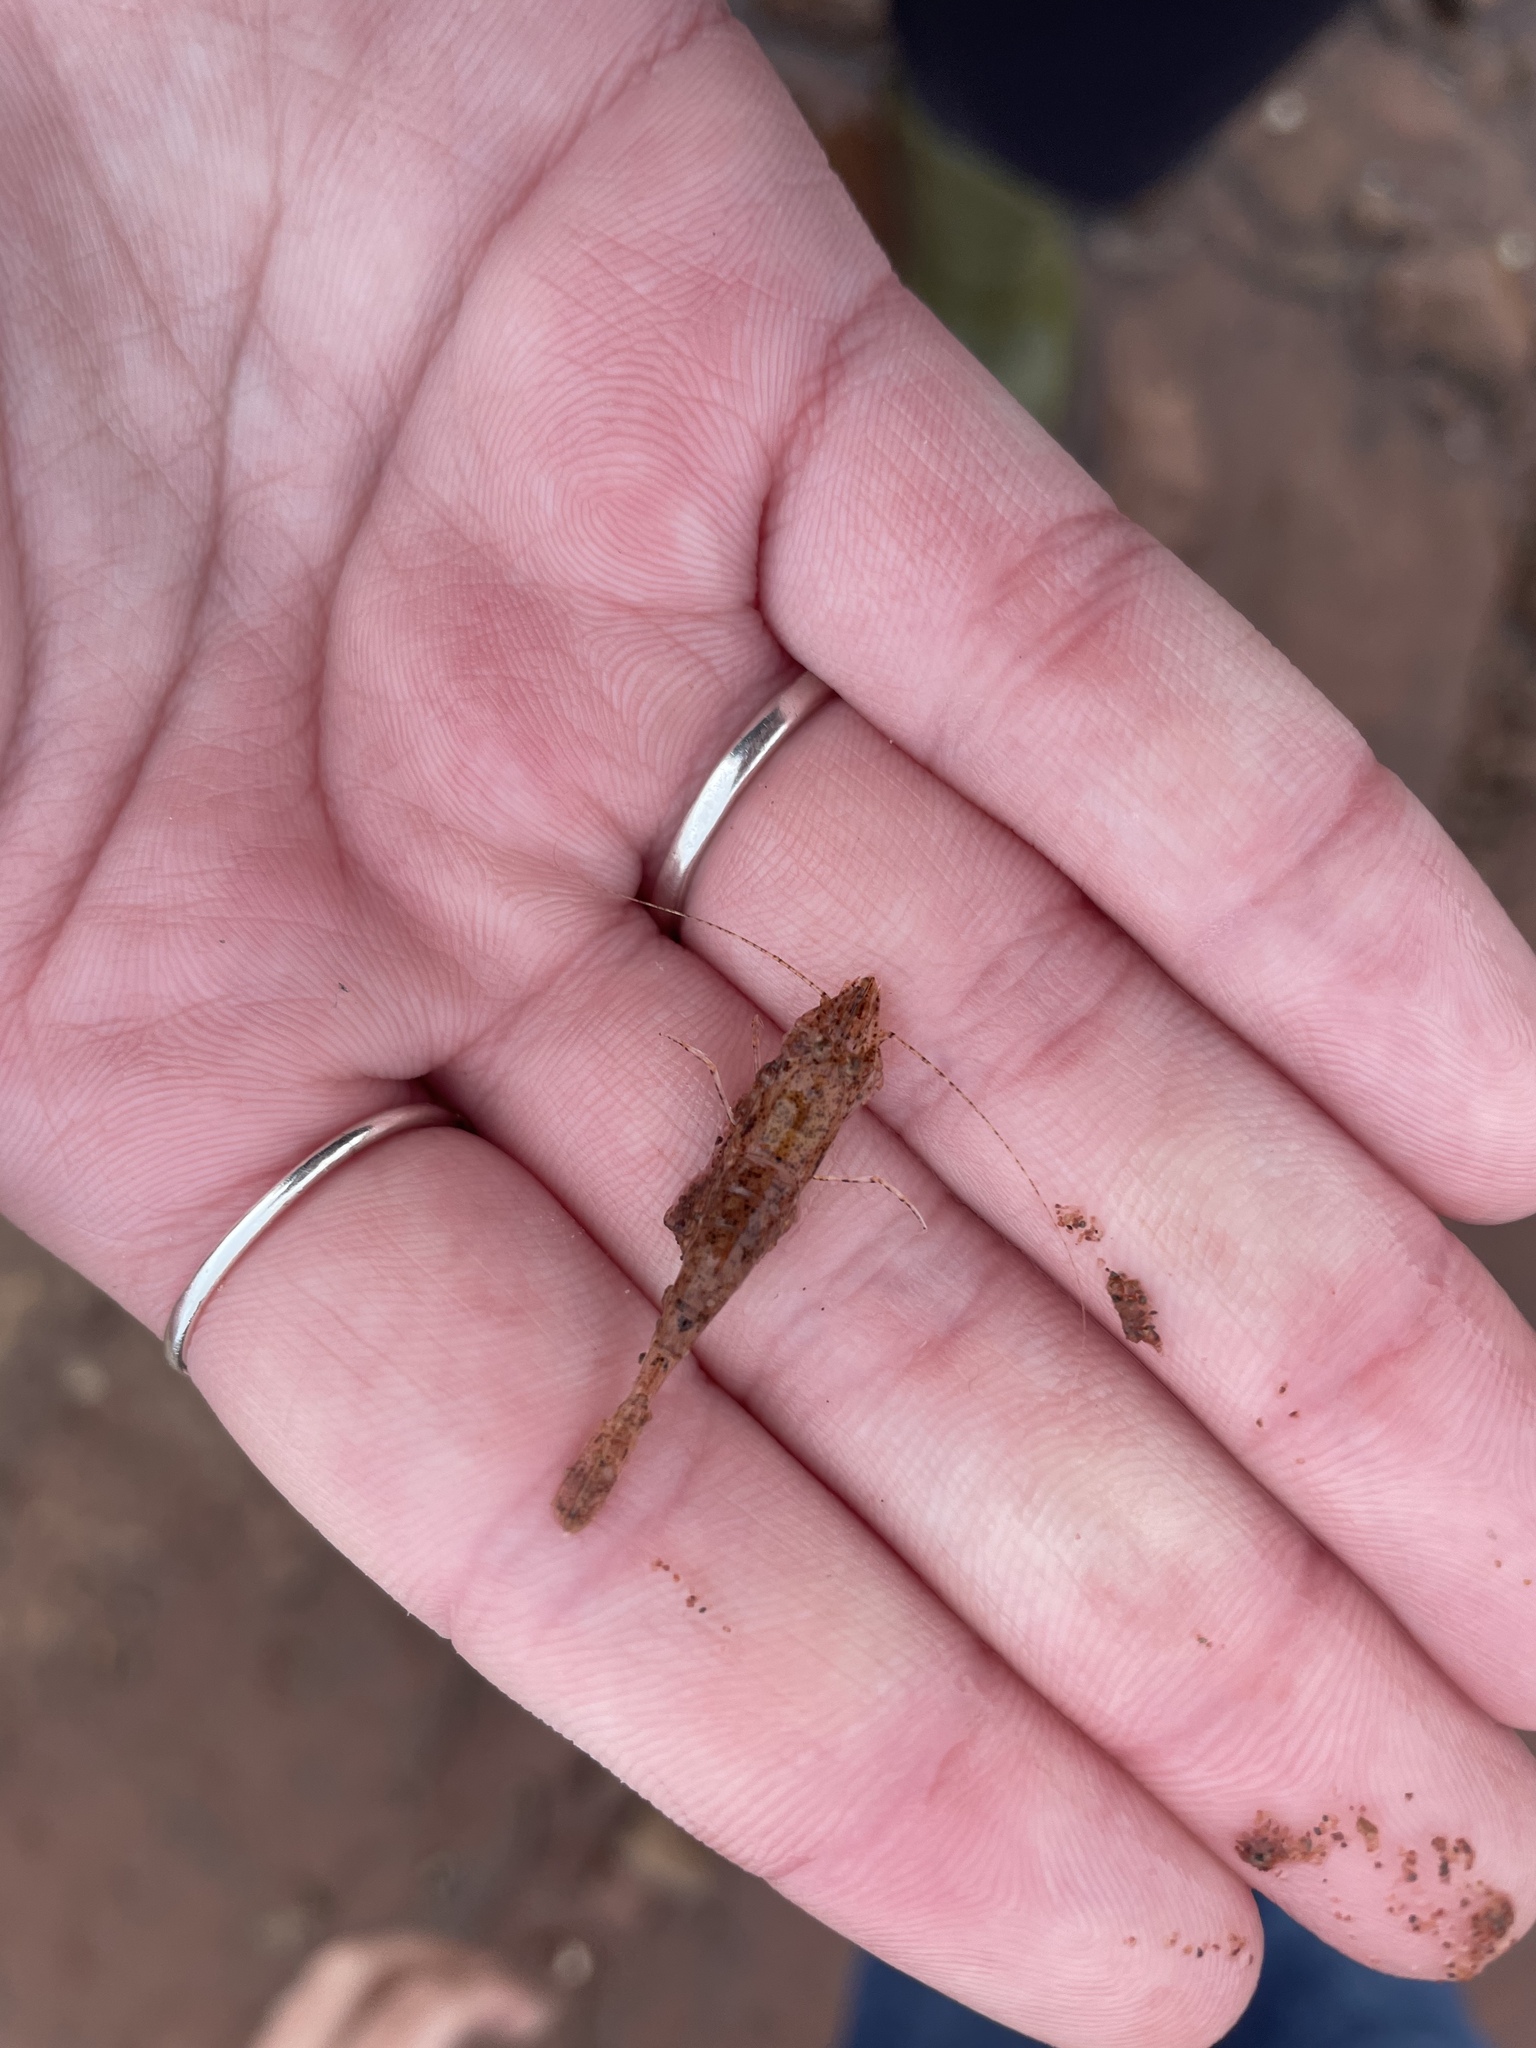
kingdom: Animalia
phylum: Arthropoda
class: Malacostraca
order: Decapoda
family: Crangonidae
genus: Crangon
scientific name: Crangon septemspinosa
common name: Bail shrimp
